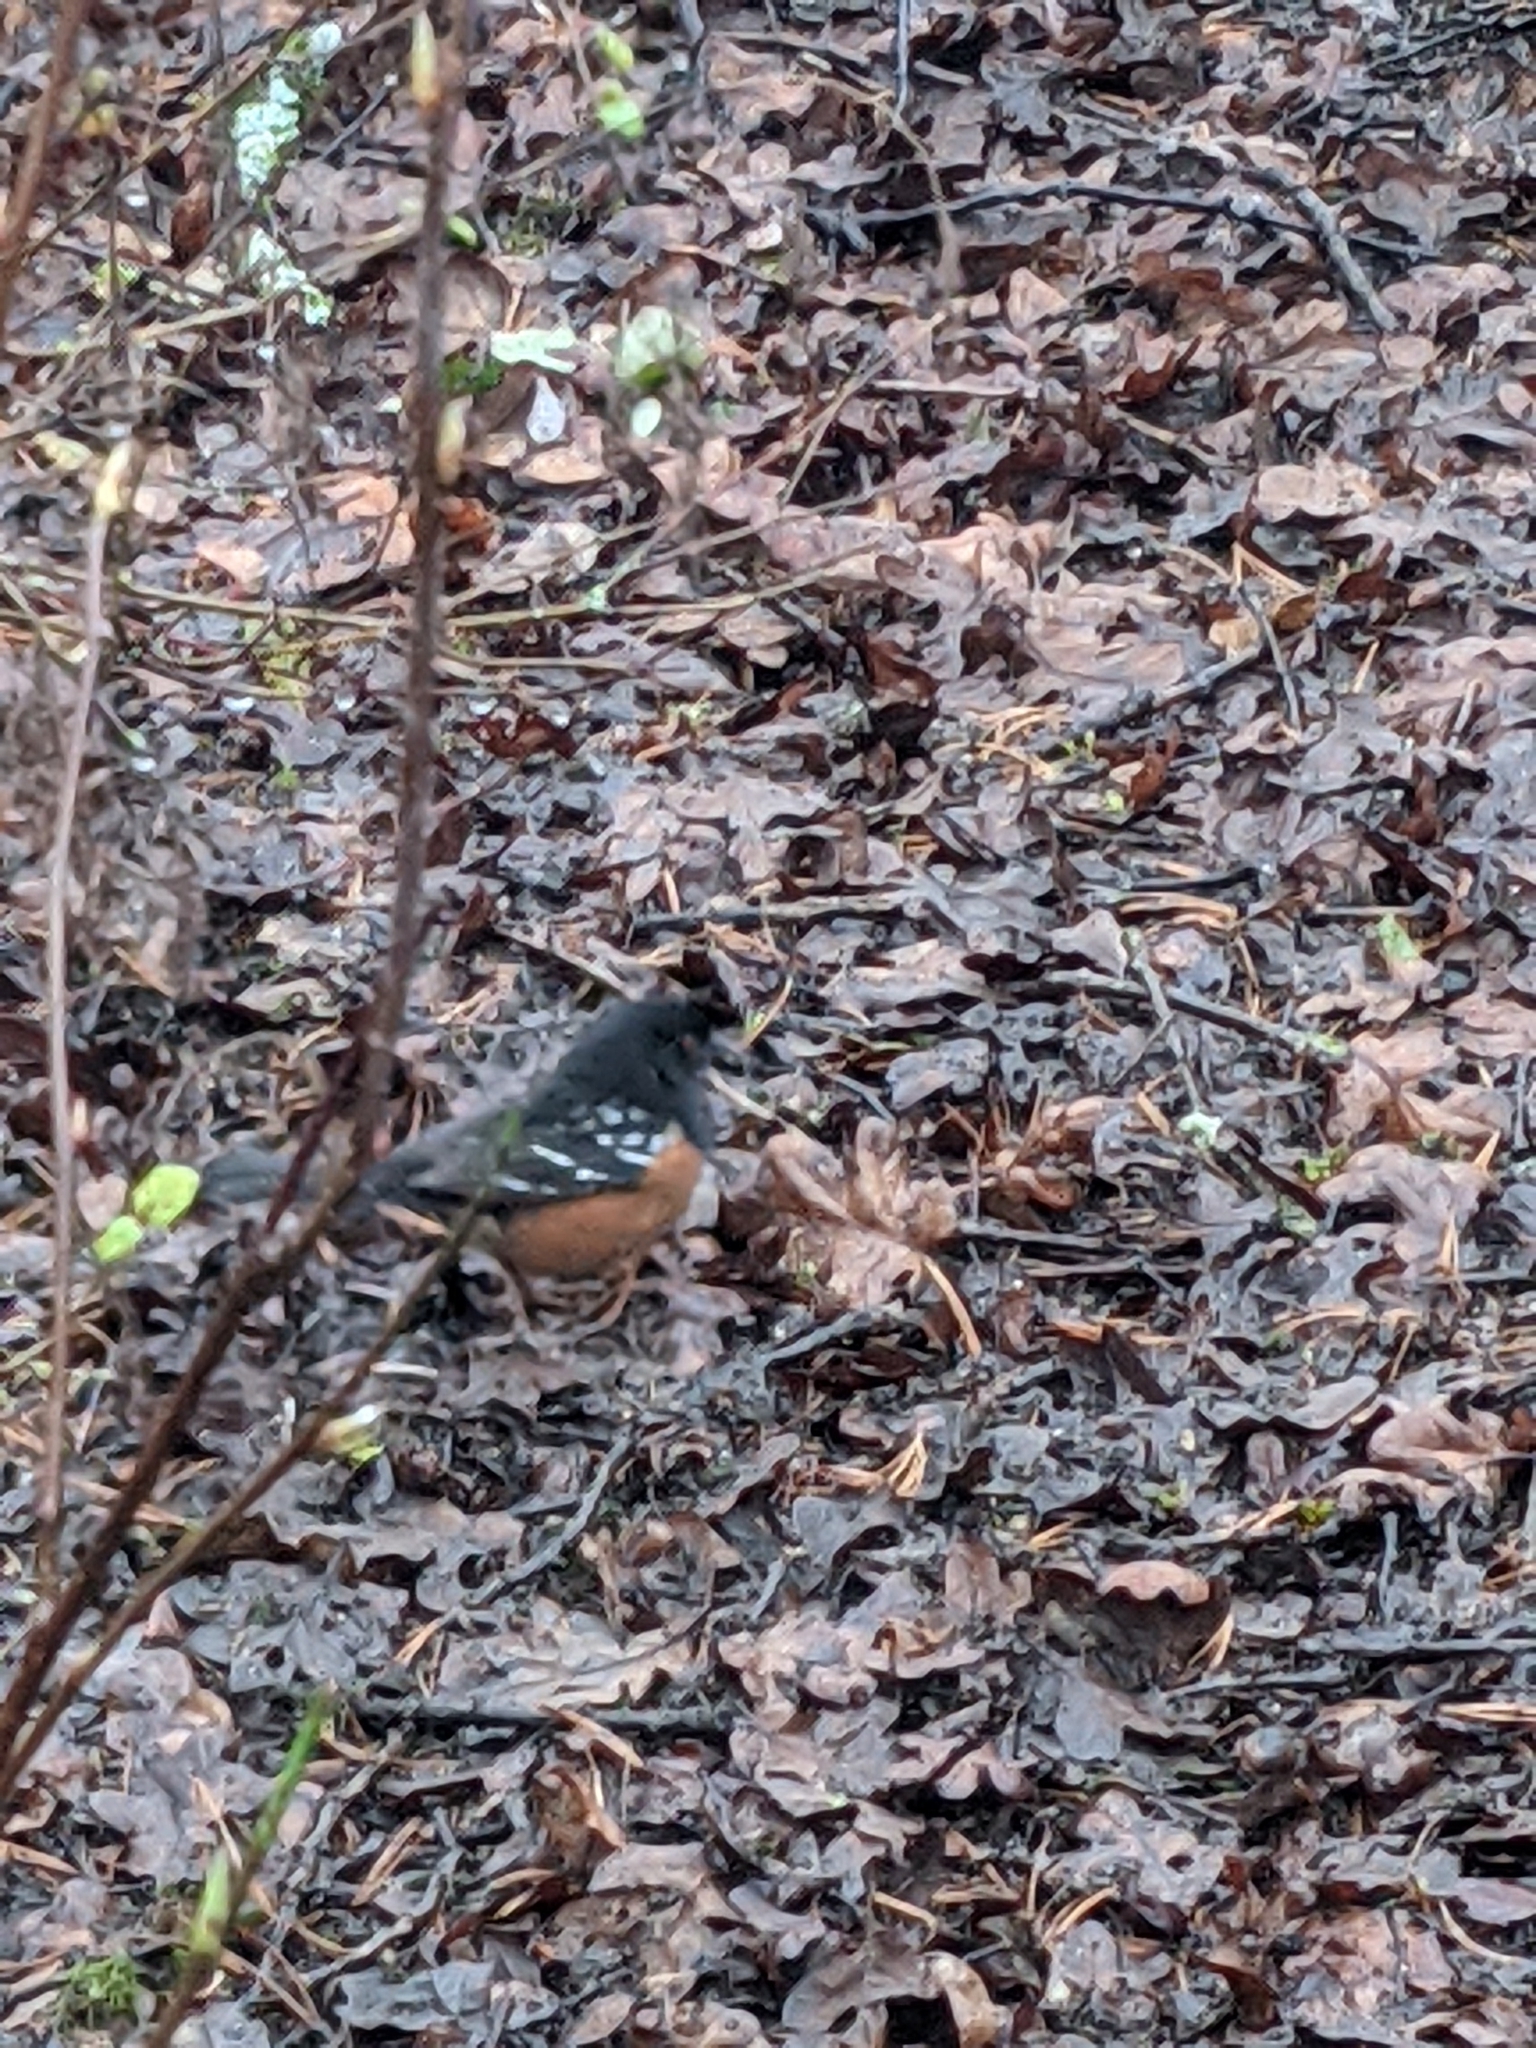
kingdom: Animalia
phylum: Chordata
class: Aves
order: Passeriformes
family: Passerellidae
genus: Pipilo
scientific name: Pipilo maculatus
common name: Spotted towhee
